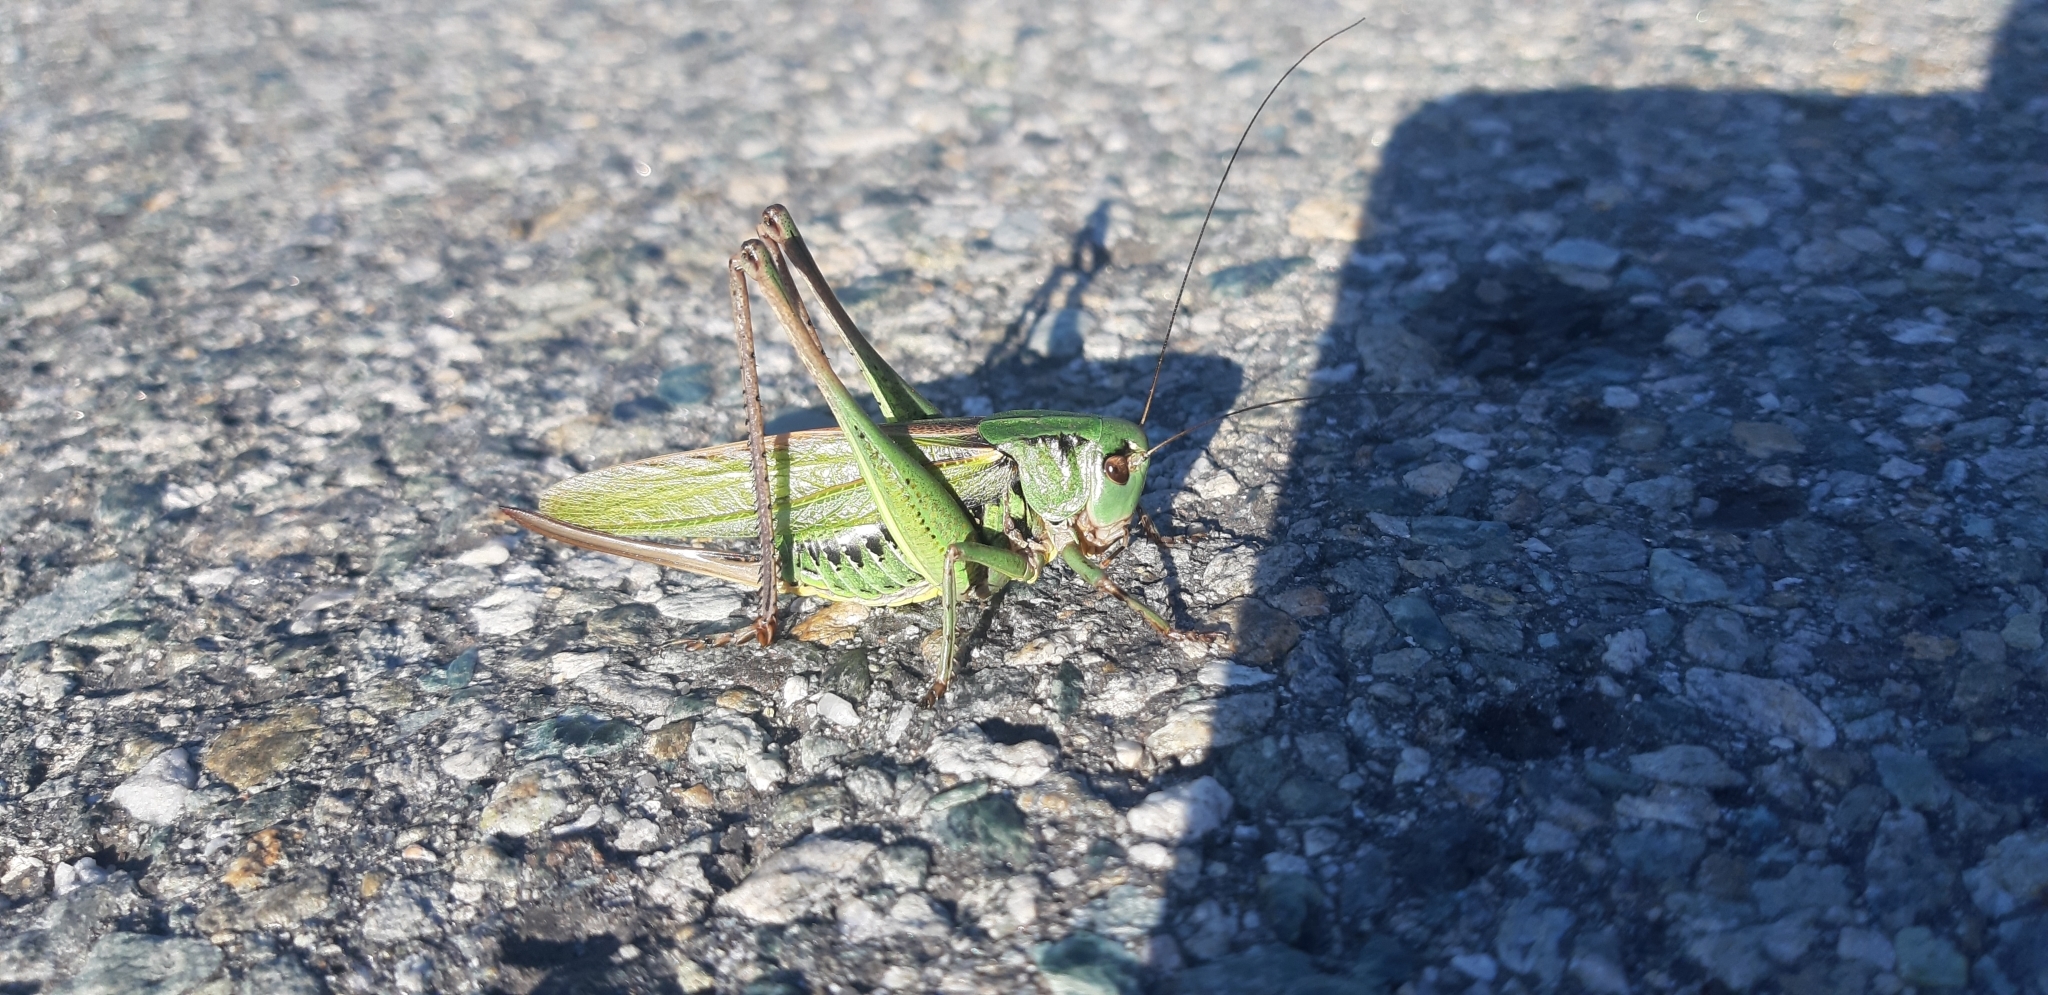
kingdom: Animalia
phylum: Arthropoda
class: Insecta
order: Orthoptera
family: Tettigoniidae
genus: Decticus
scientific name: Decticus verrucivorus
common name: Wart-biter
